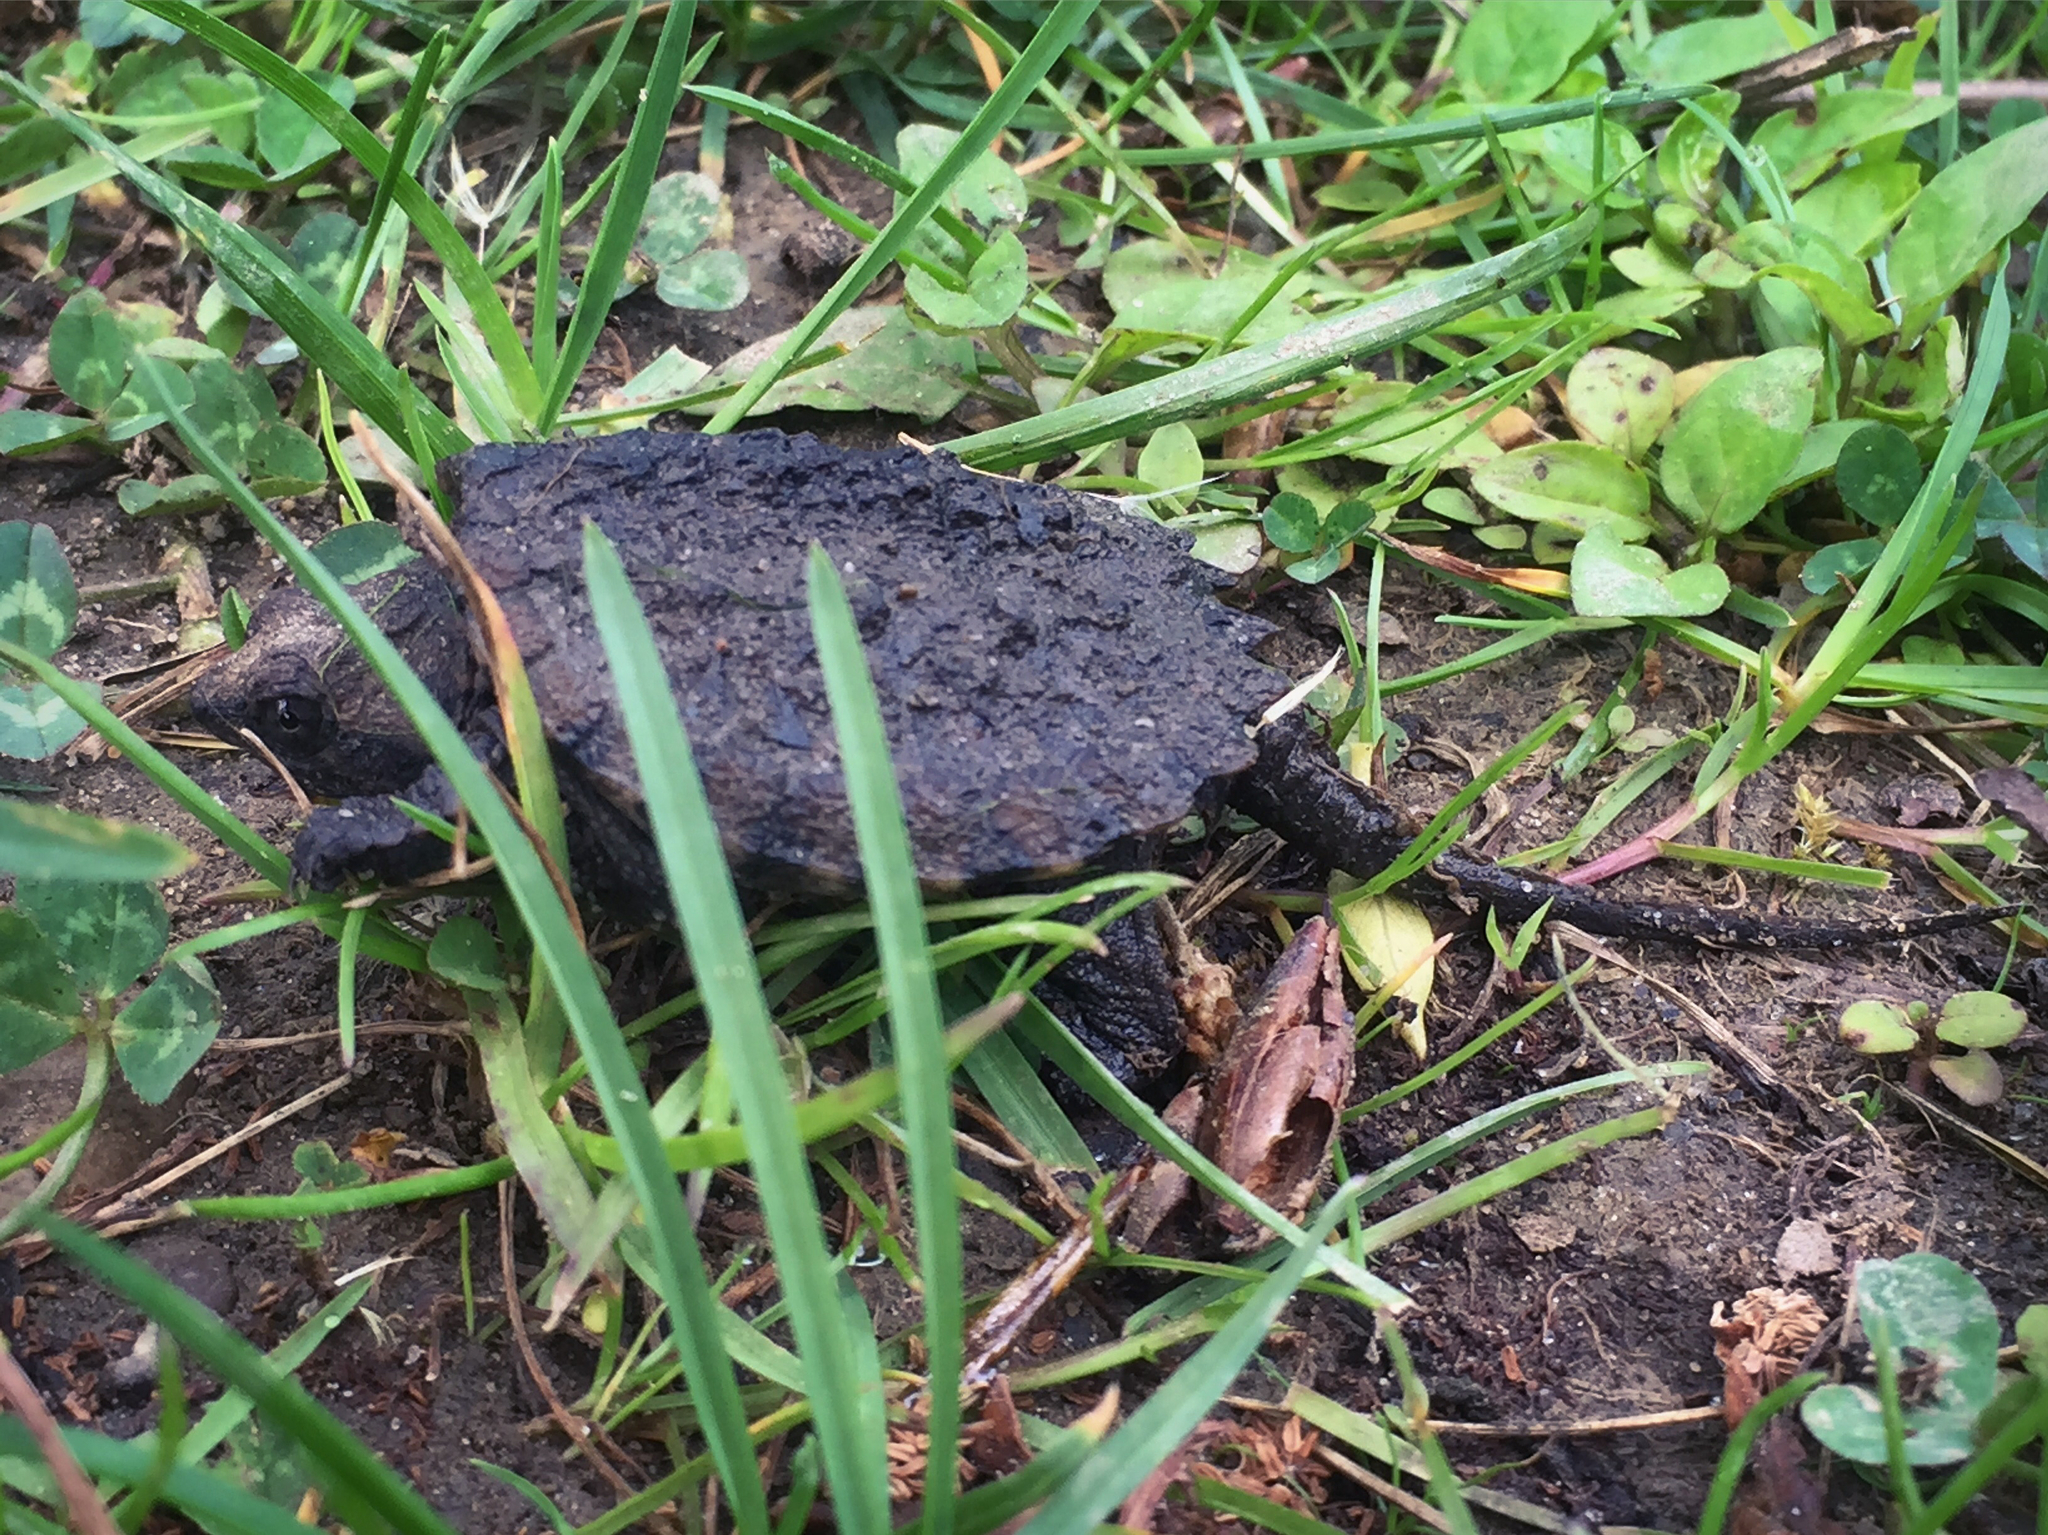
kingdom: Animalia
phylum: Chordata
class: Testudines
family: Chelydridae
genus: Chelydra
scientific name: Chelydra serpentina
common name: Common snapping turtle
